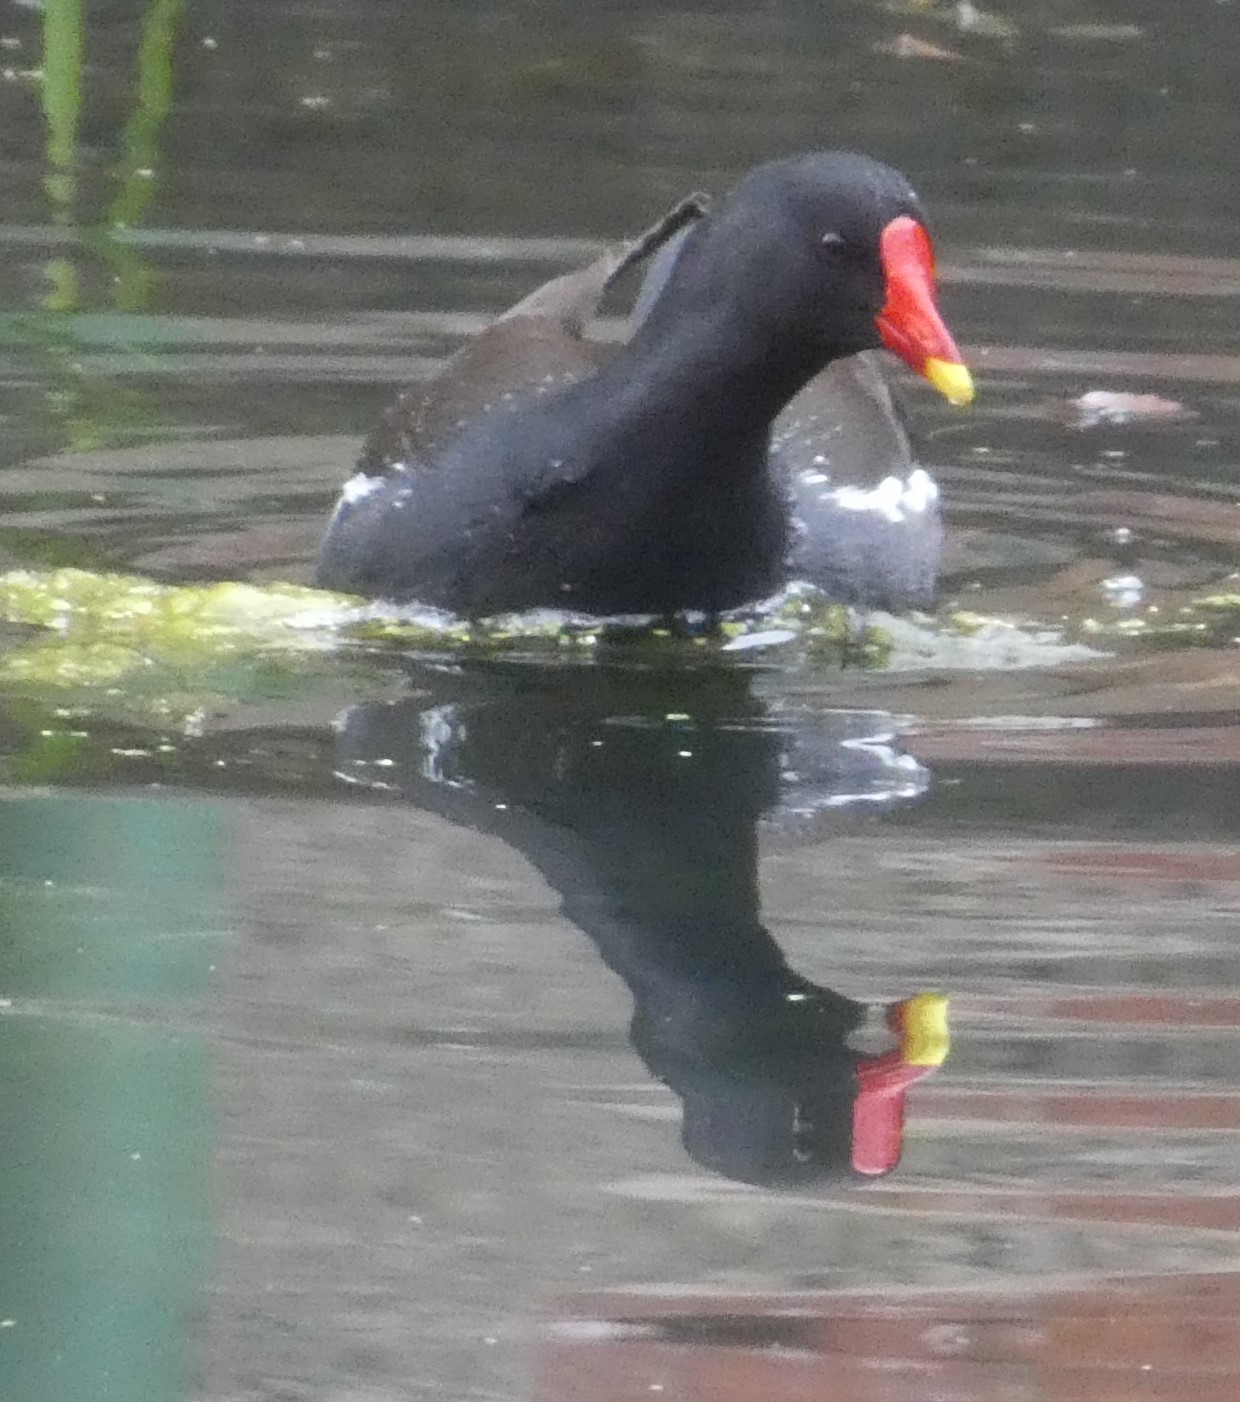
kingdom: Animalia
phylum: Chordata
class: Aves
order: Gruiformes
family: Rallidae
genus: Gallinula
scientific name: Gallinula chloropus
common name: Common moorhen
